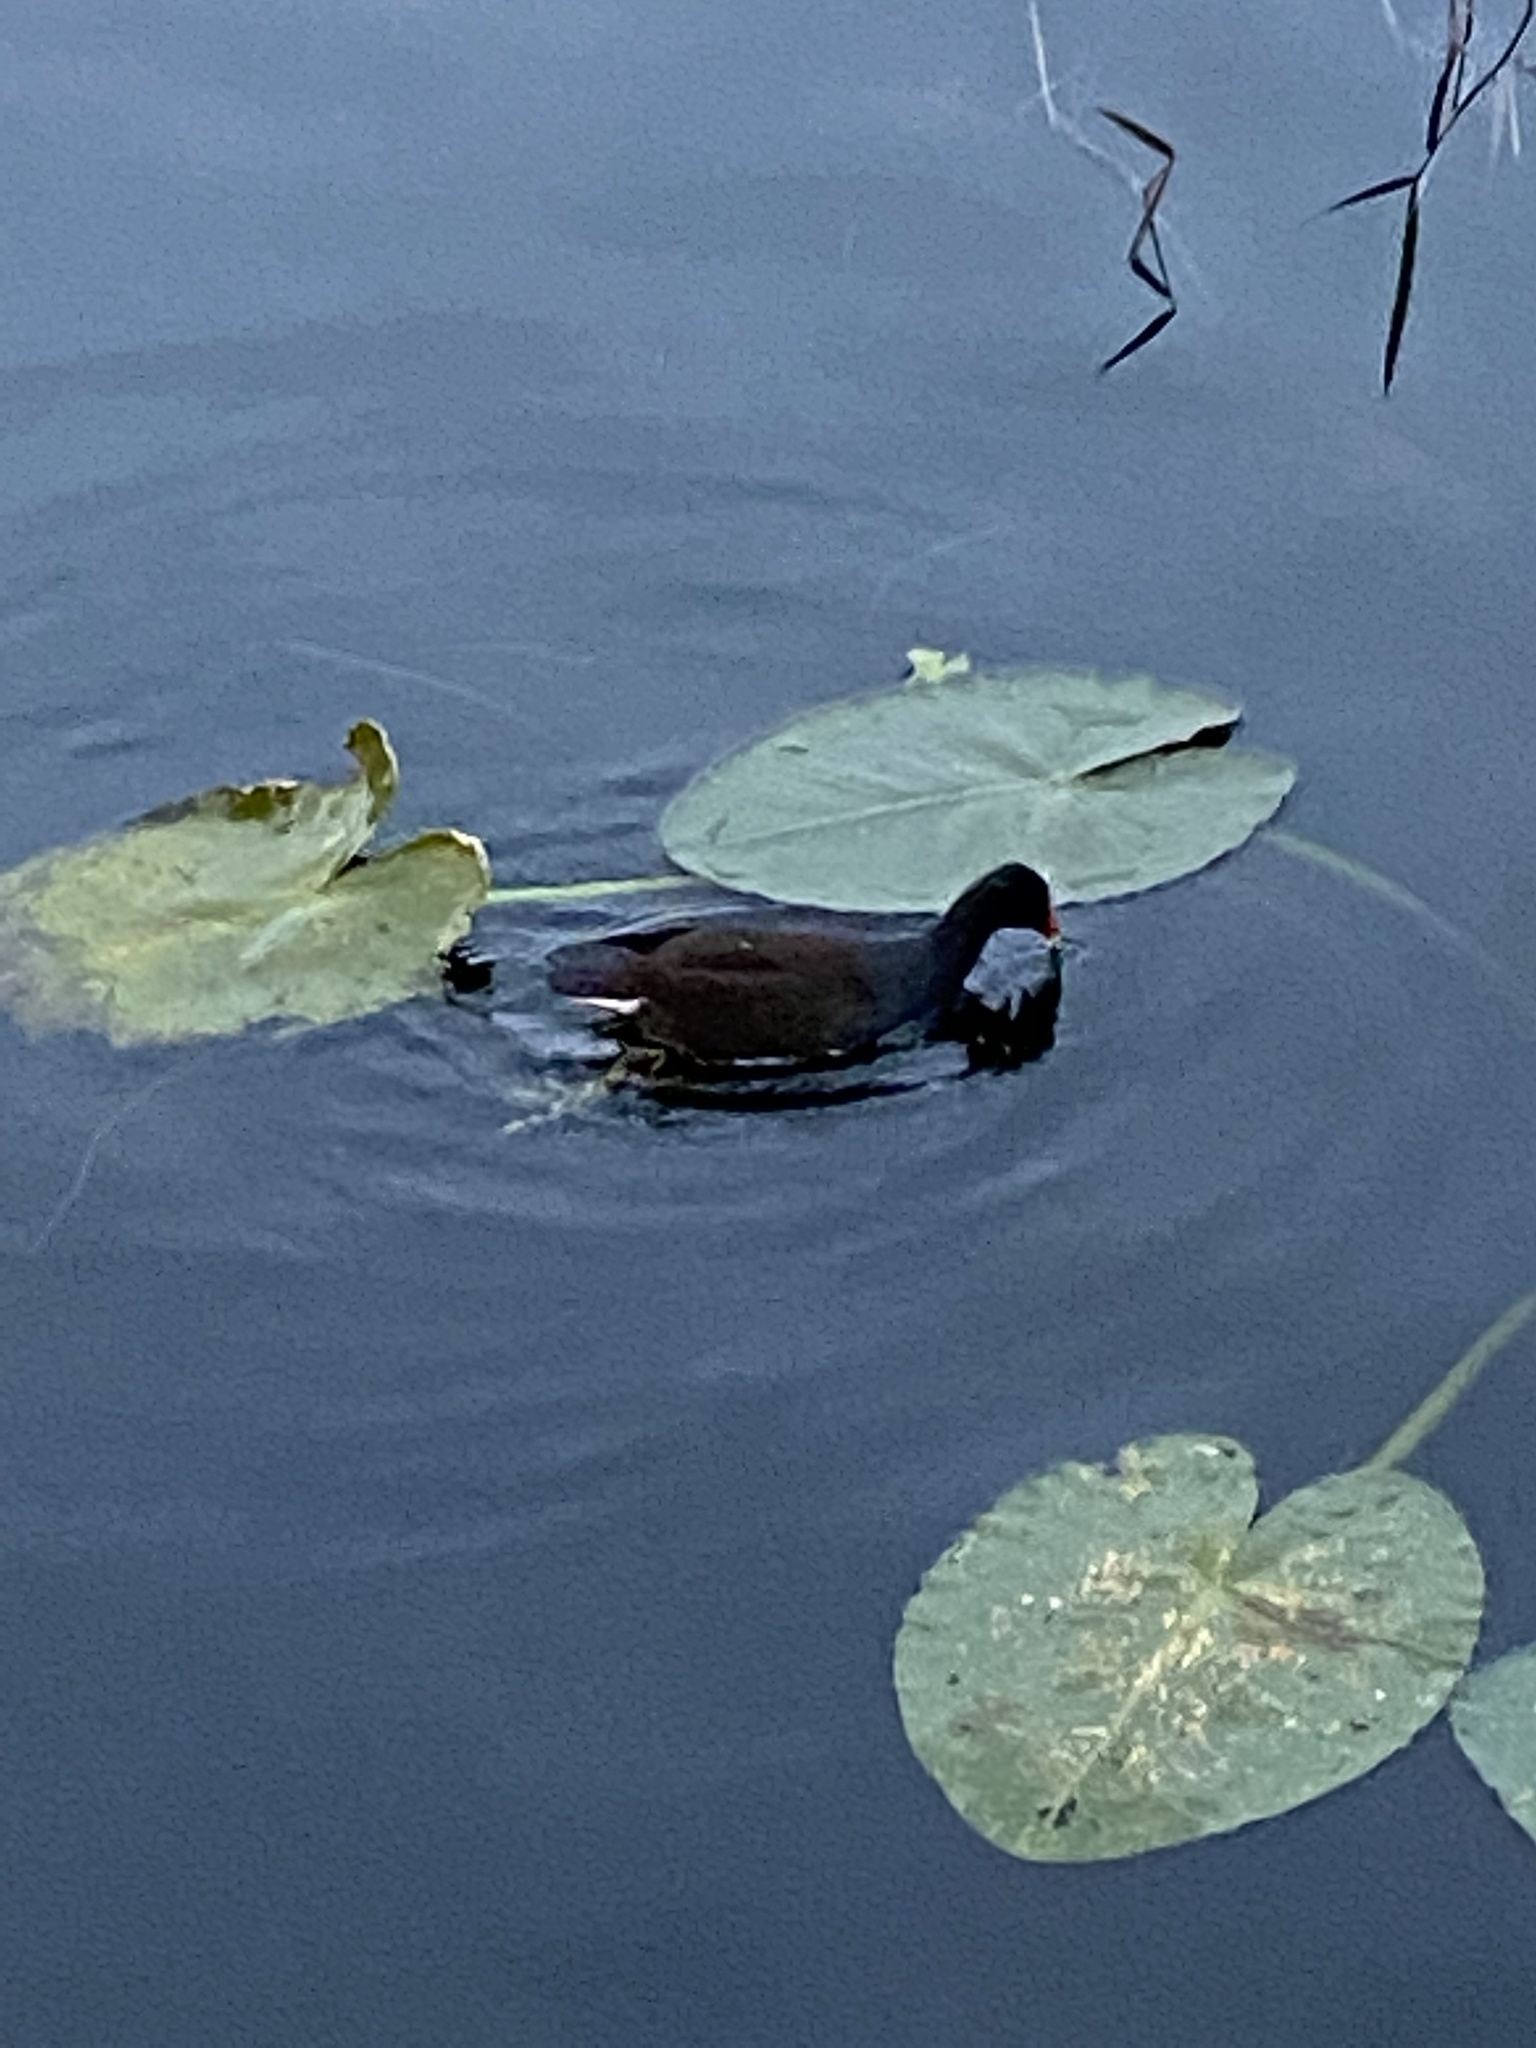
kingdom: Animalia
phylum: Chordata
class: Aves
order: Gruiformes
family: Rallidae
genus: Gallinula
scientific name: Gallinula chloropus
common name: Common moorhen
